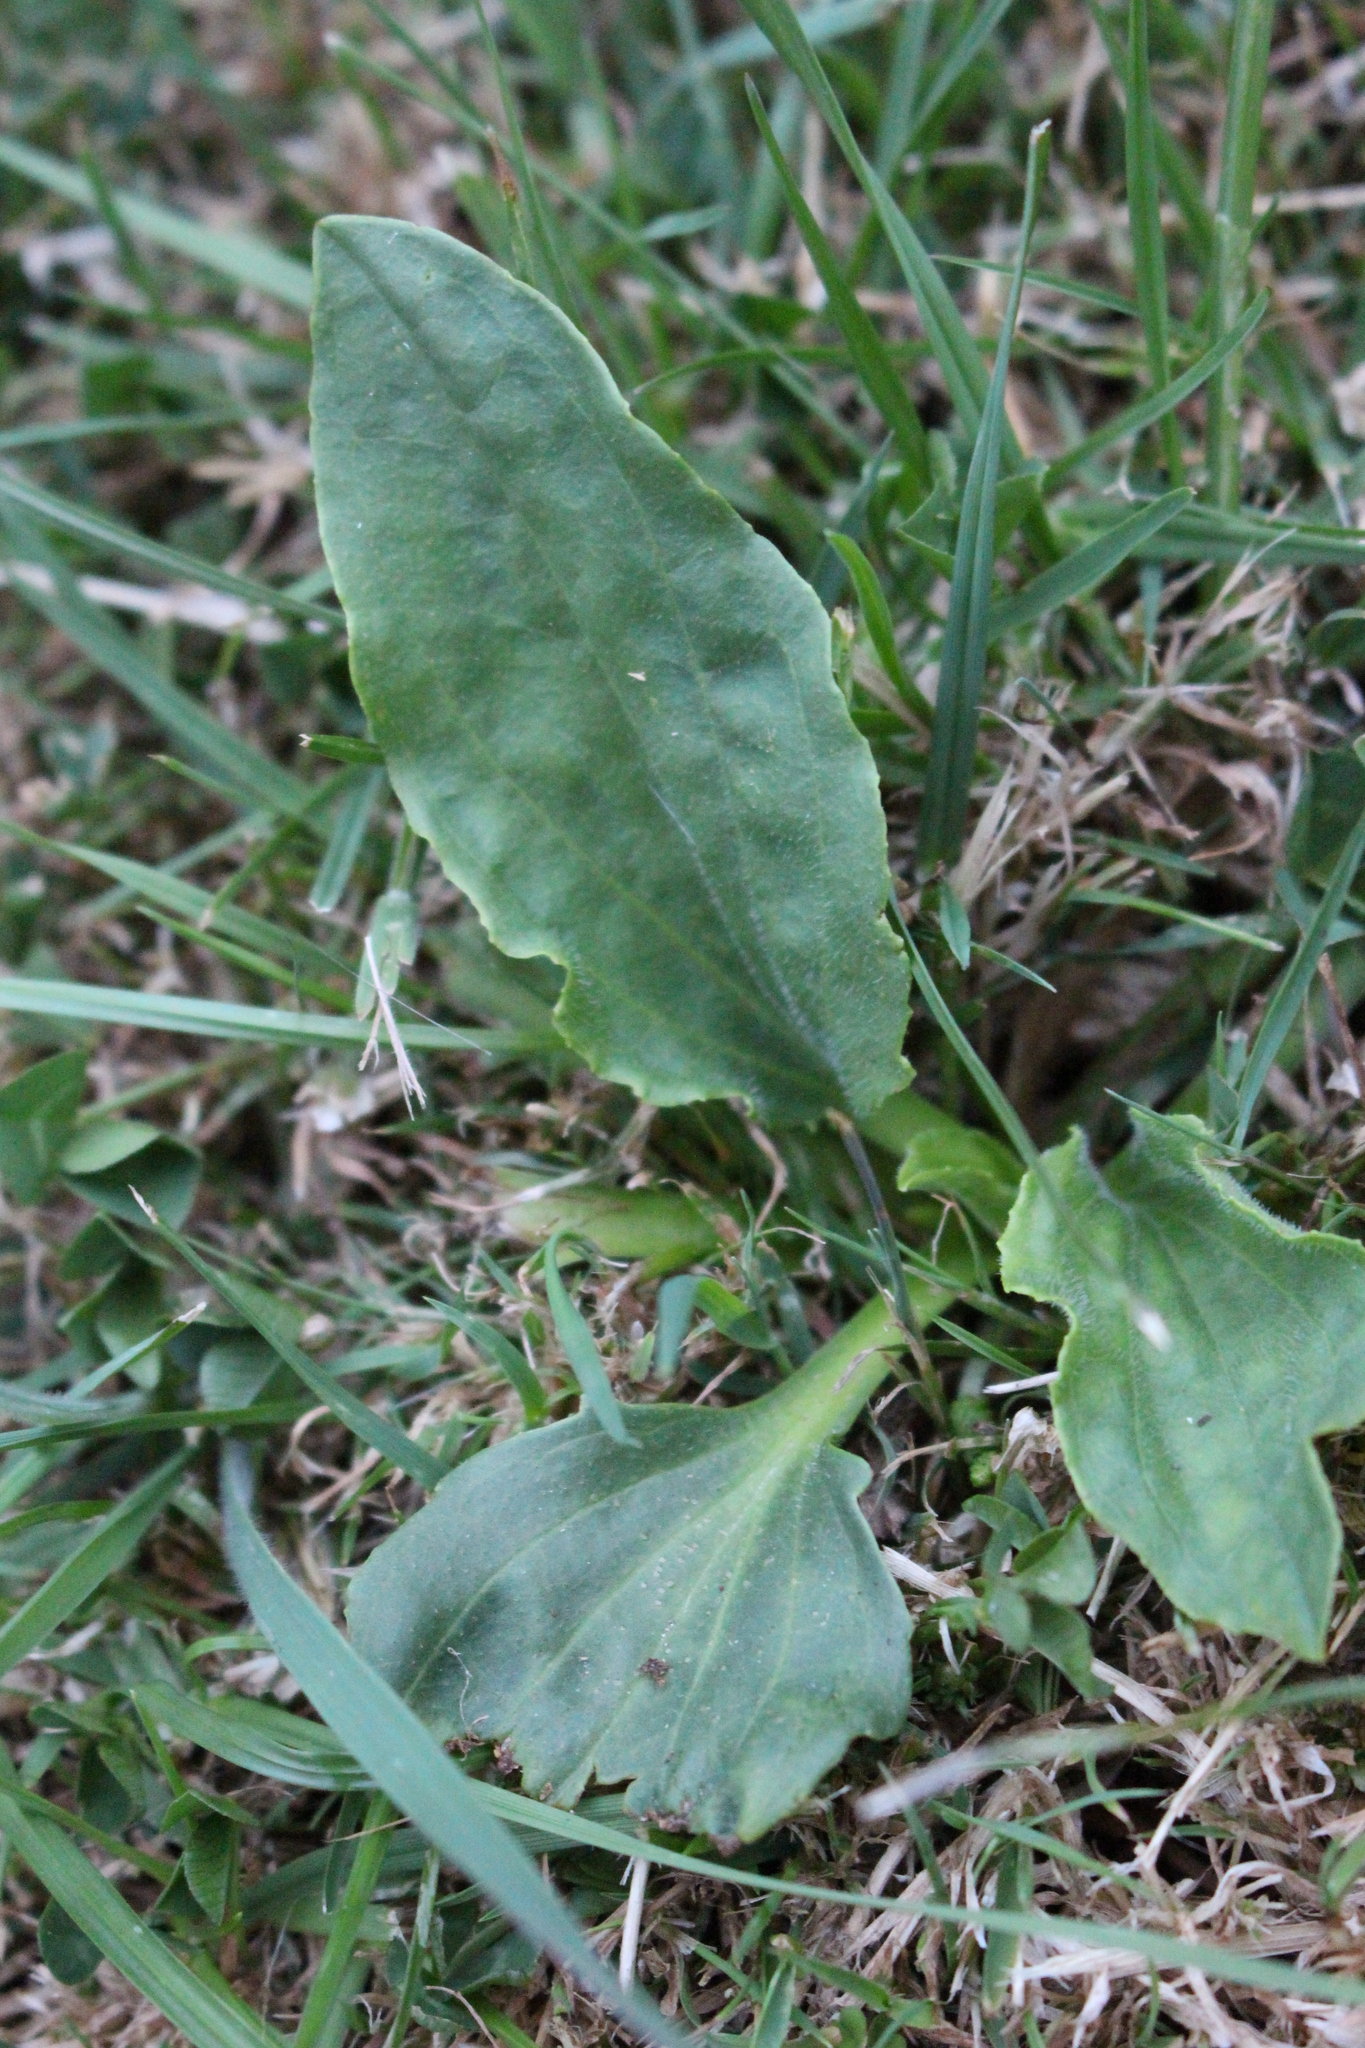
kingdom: Plantae
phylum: Tracheophyta
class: Magnoliopsida
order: Lamiales
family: Plantaginaceae
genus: Plantago
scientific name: Plantago major
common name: Common plantain
